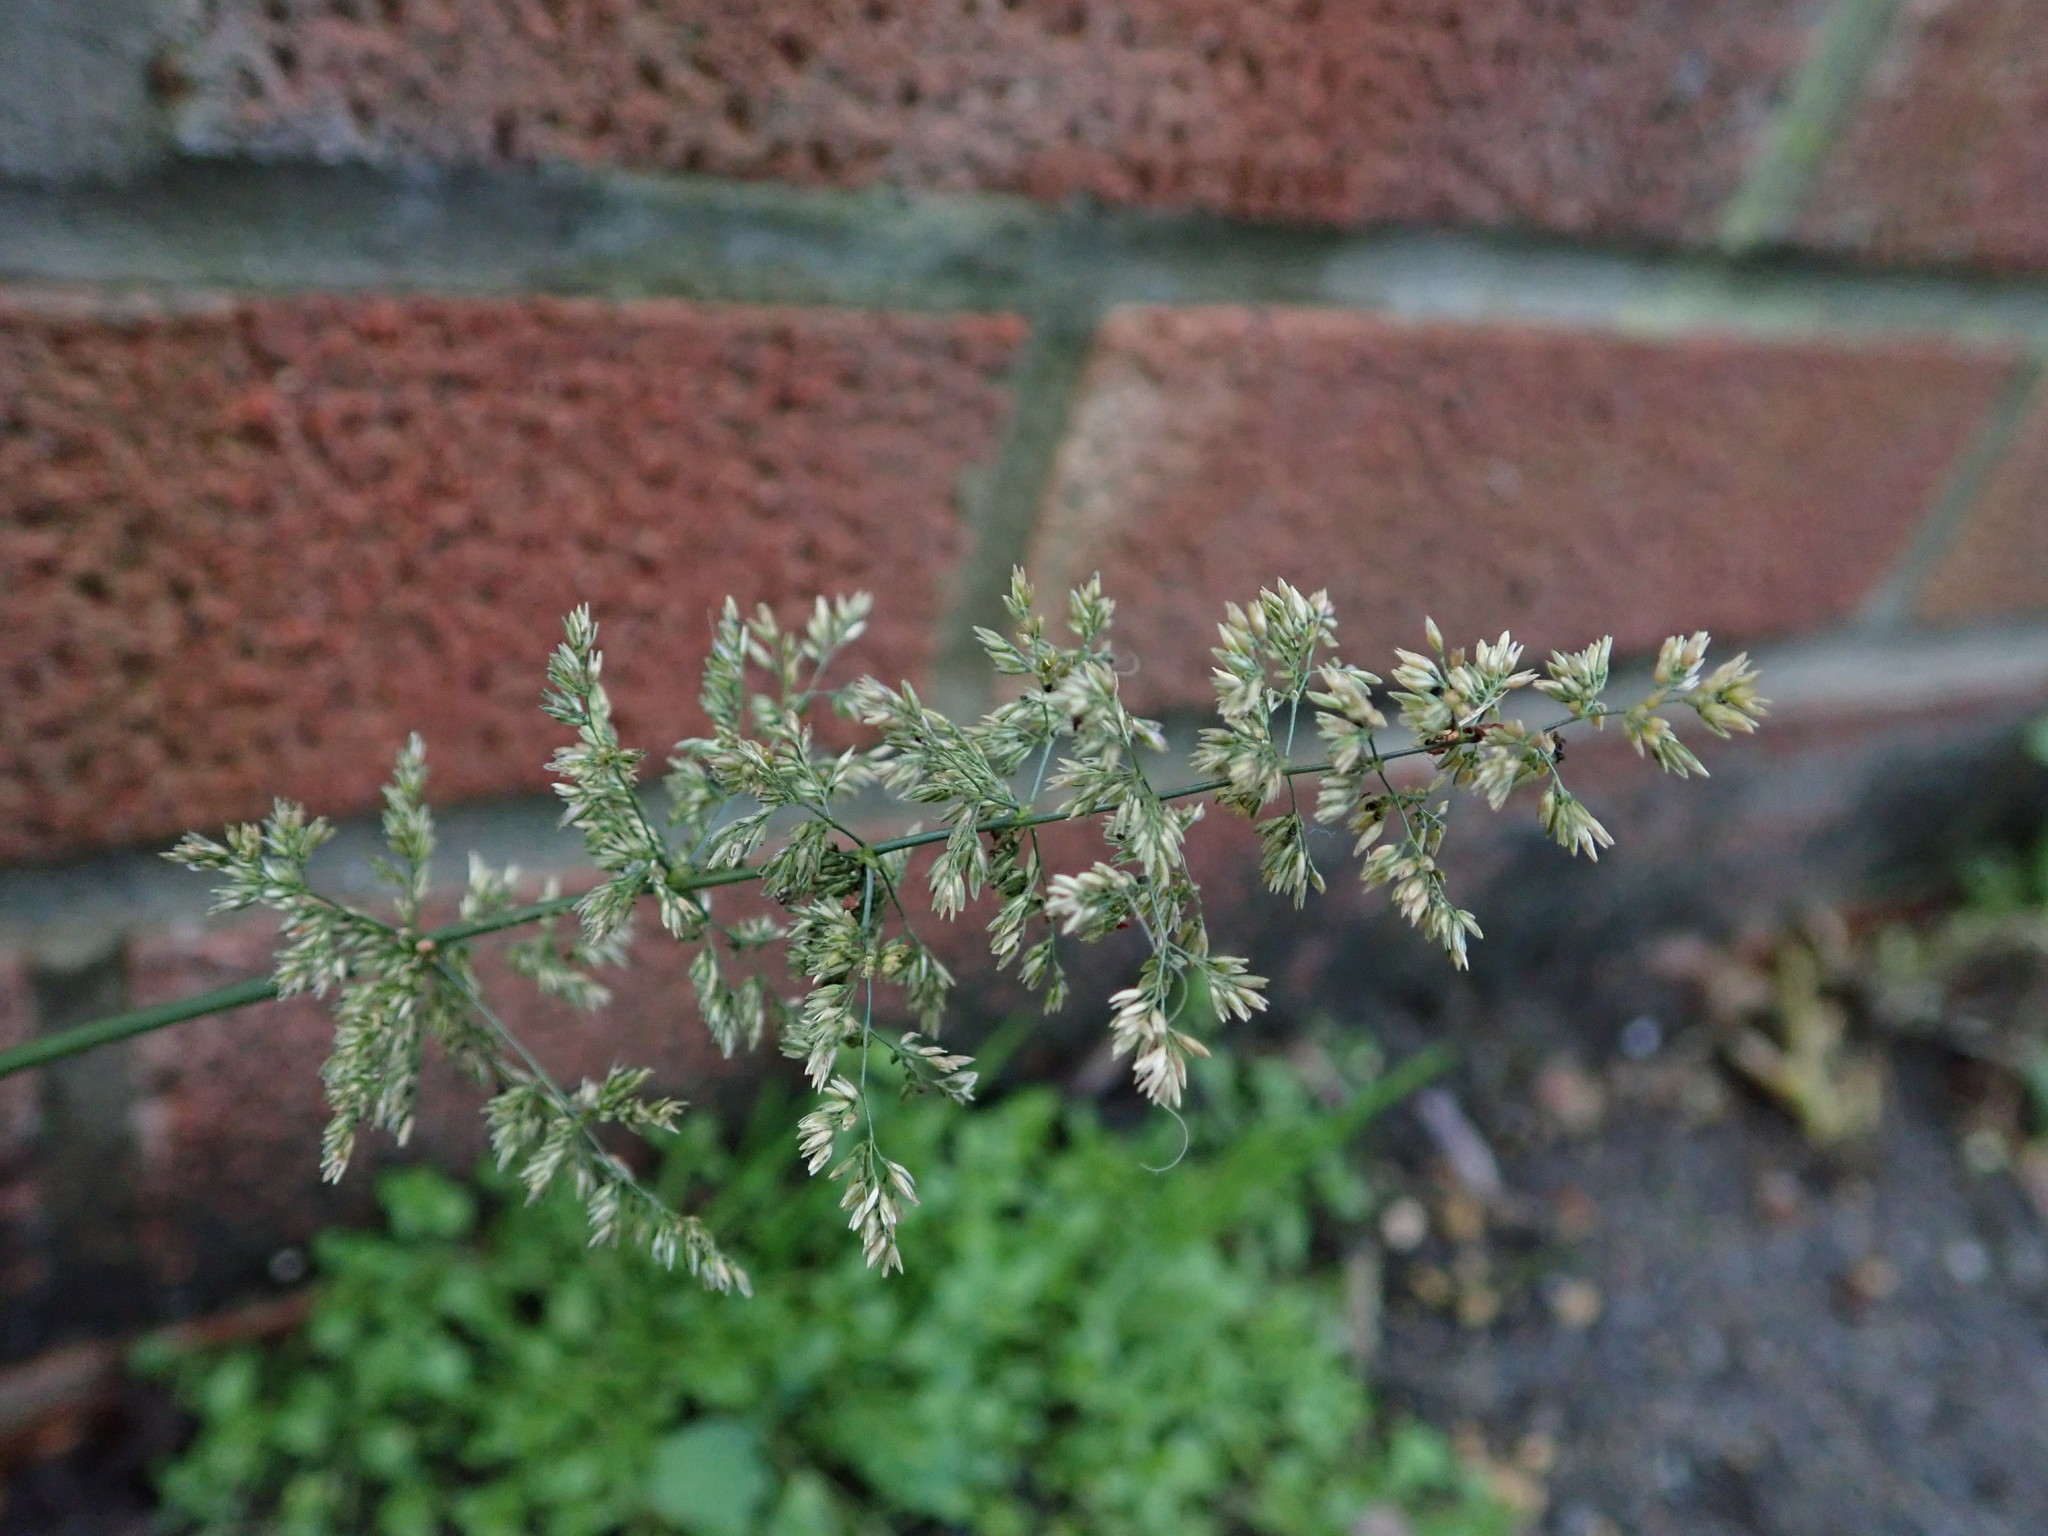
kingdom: Plantae
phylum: Tracheophyta
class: Liliopsida
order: Poales
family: Poaceae
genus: Polypogon
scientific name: Polypogon viridis
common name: Water bent
